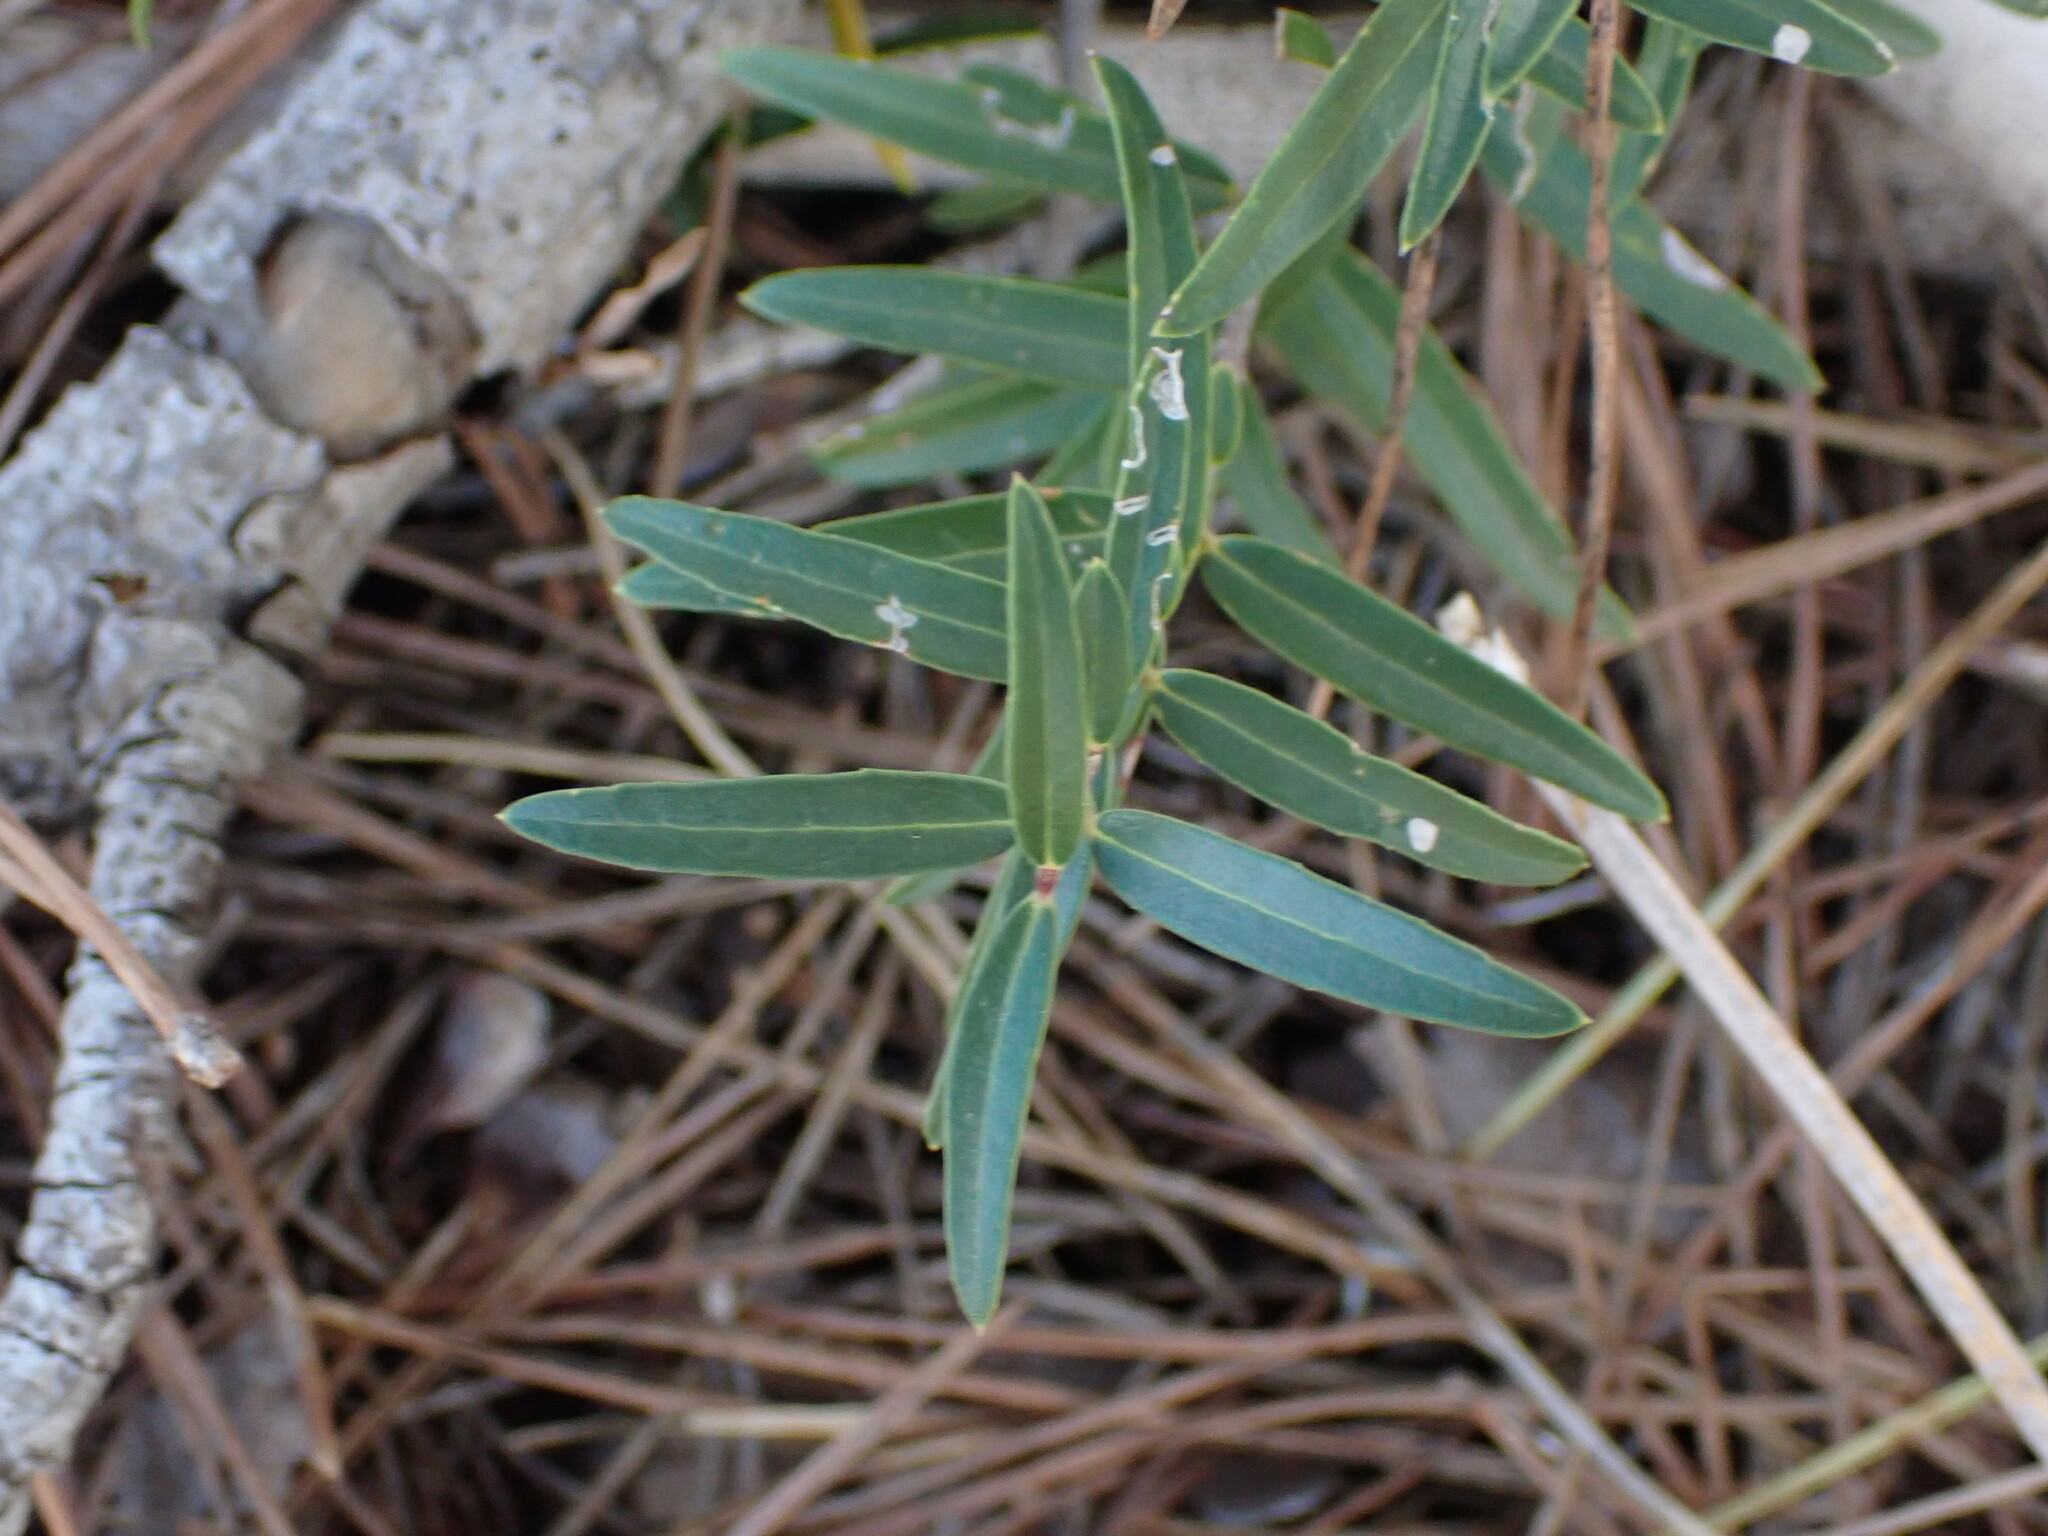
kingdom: Plantae
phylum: Tracheophyta
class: Magnoliopsida
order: Lamiales
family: Oleaceae
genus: Phillyrea
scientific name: Phillyrea angustifolia
